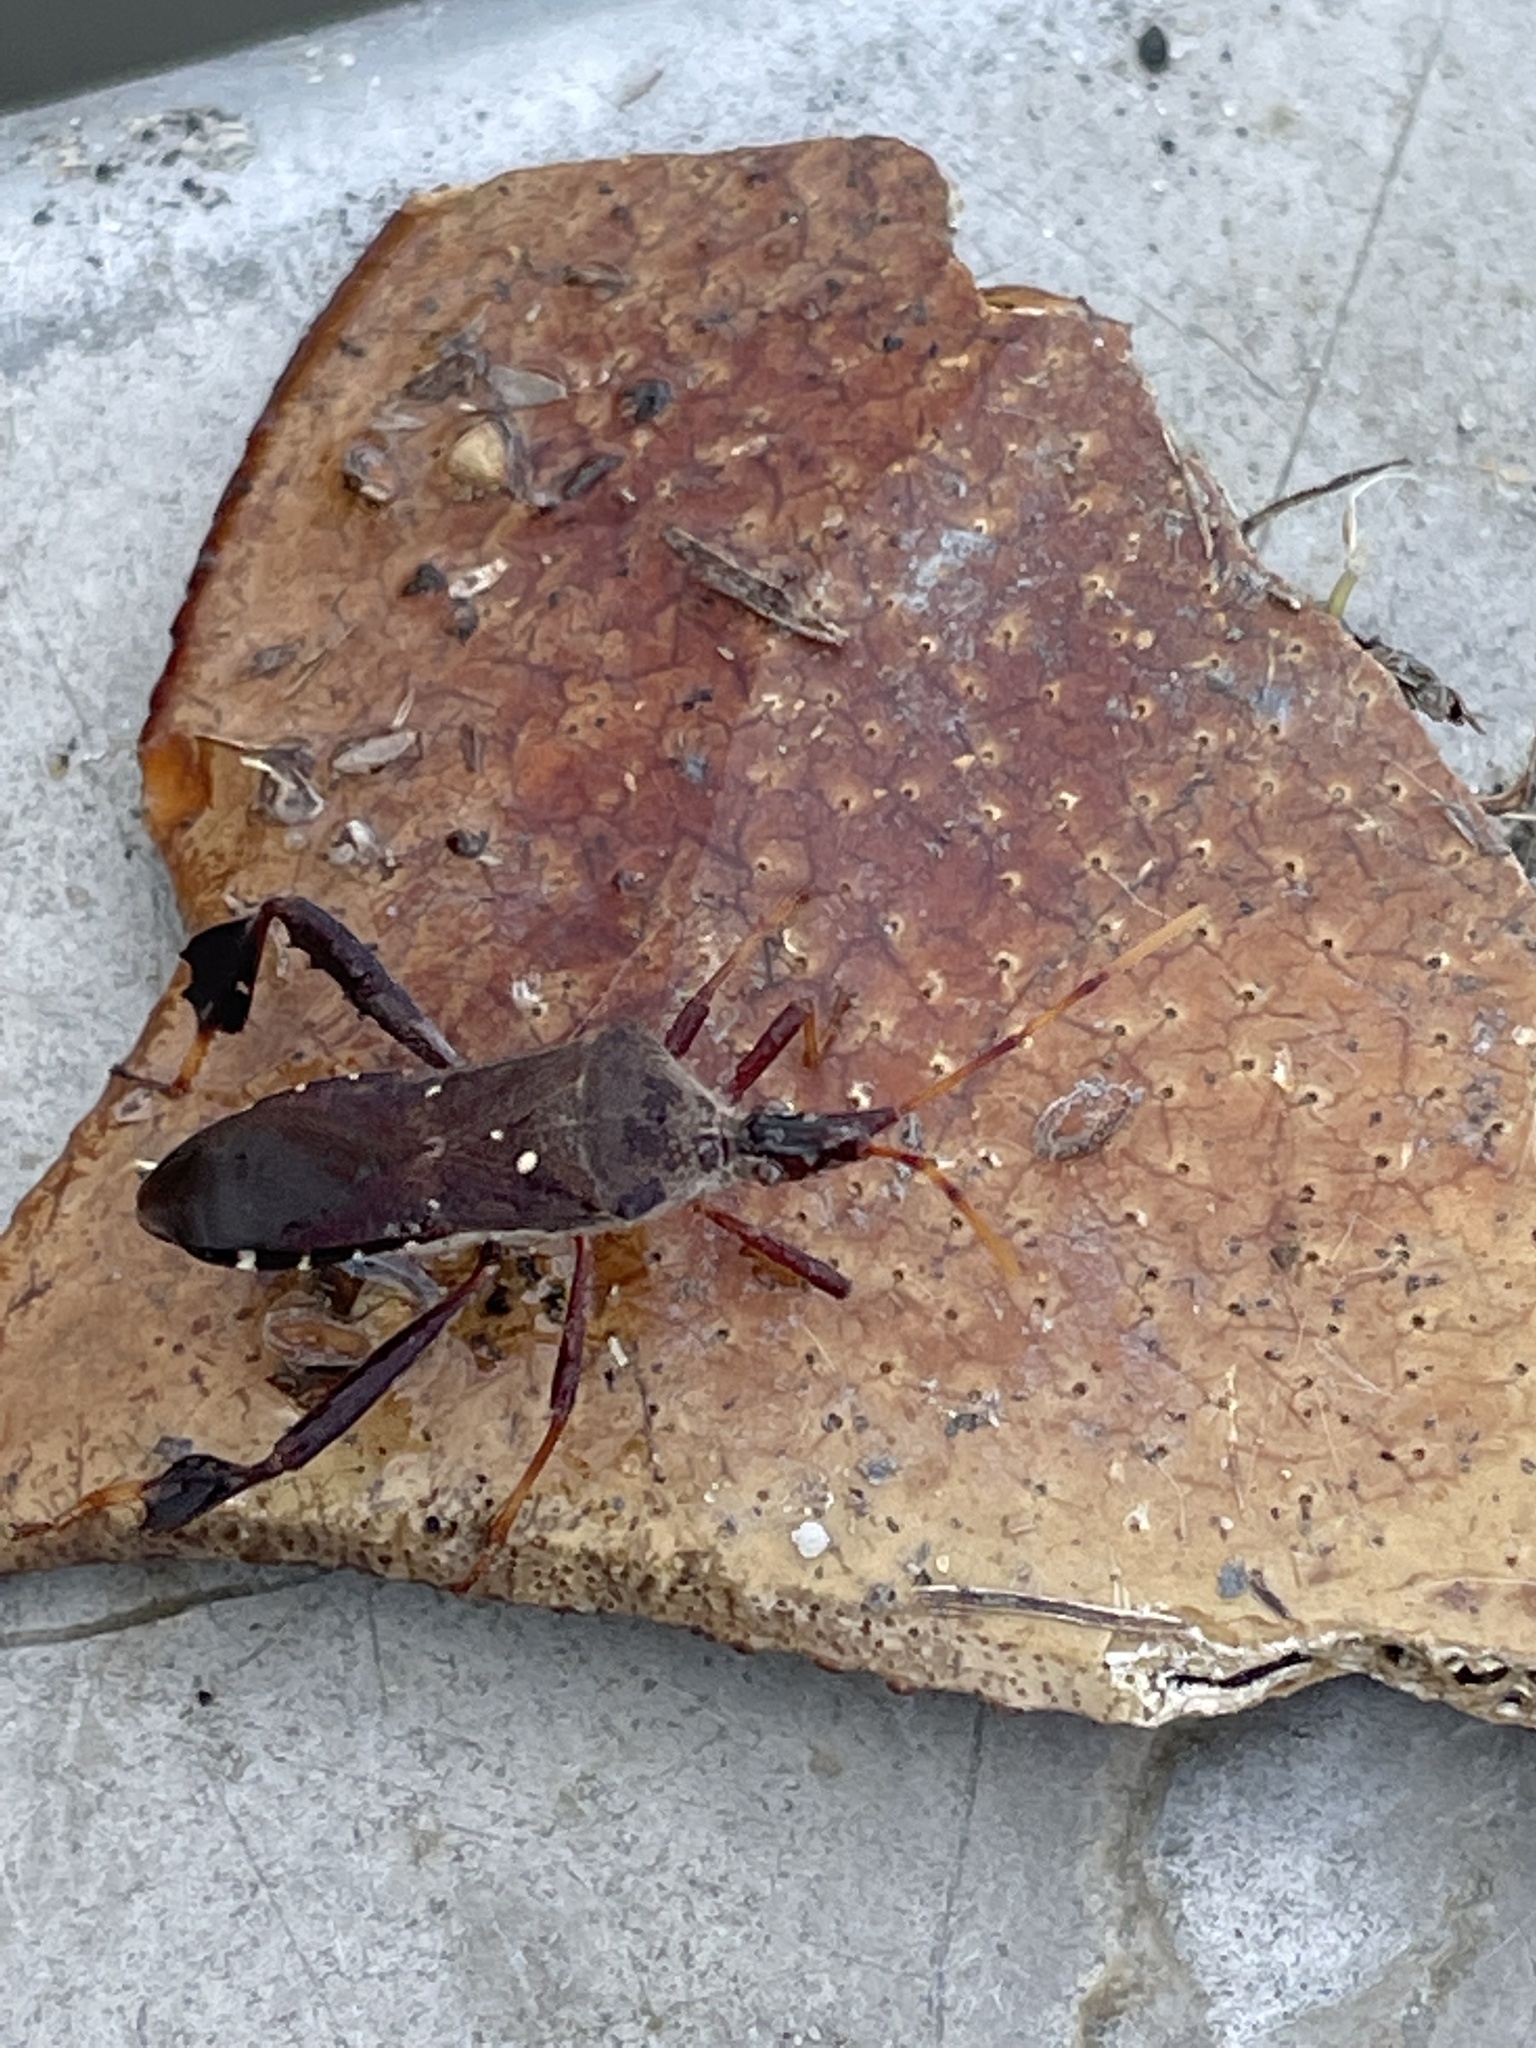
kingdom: Animalia
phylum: Arthropoda
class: Insecta
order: Hemiptera
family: Coreidae
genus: Leptoglossus
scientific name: Leptoglossus oppositus
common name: Northern leaf-footed bug
